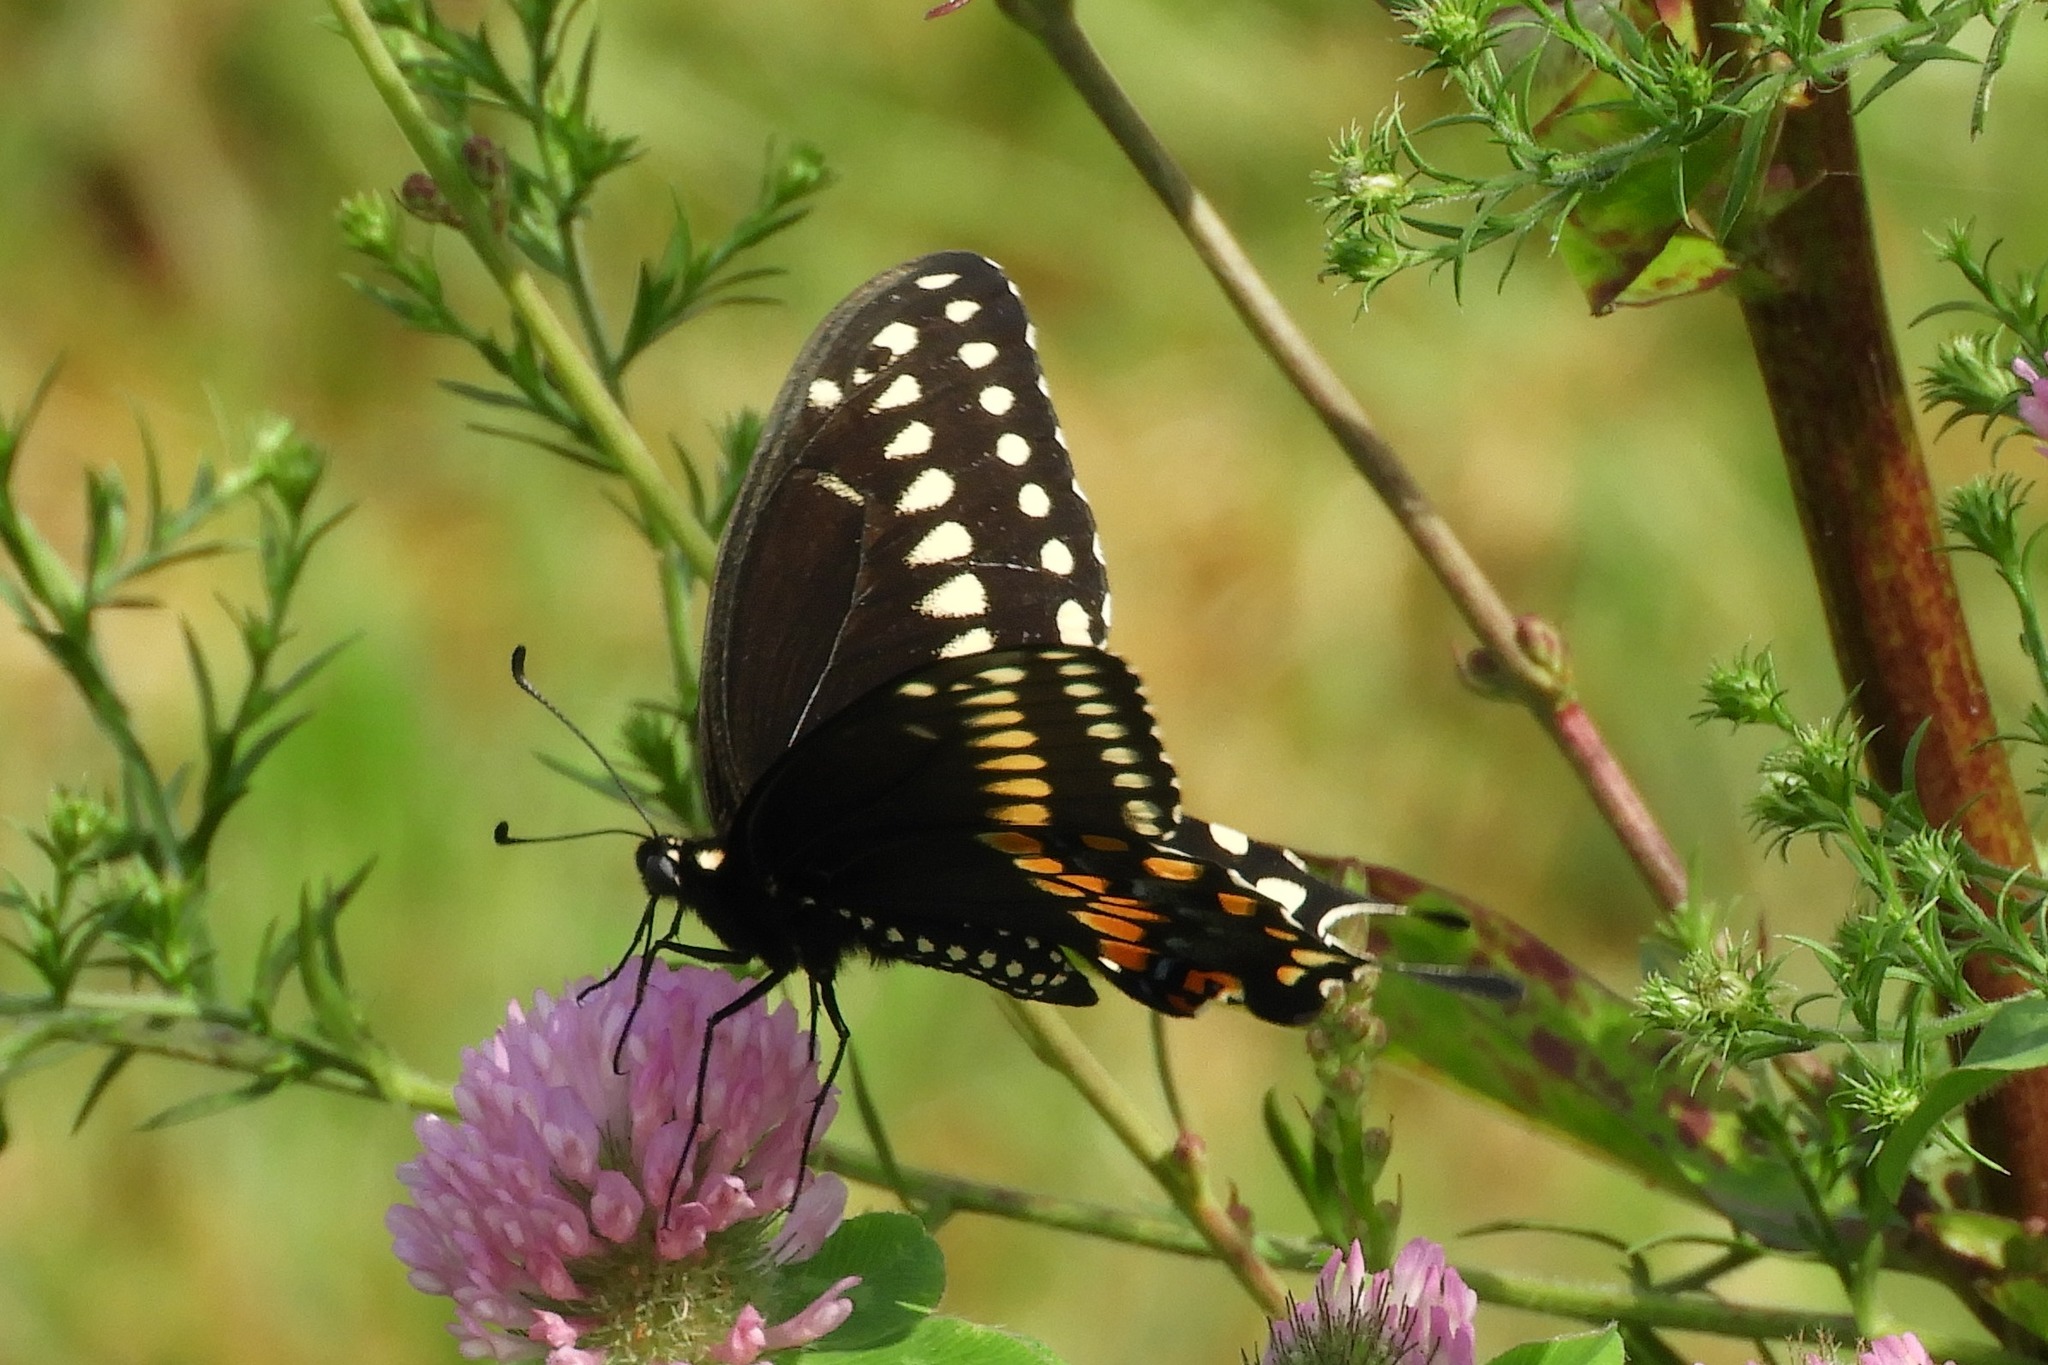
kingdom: Animalia
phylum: Arthropoda
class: Insecta
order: Lepidoptera
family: Papilionidae
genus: Papilio
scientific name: Papilio polyxenes
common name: Black swallowtail
